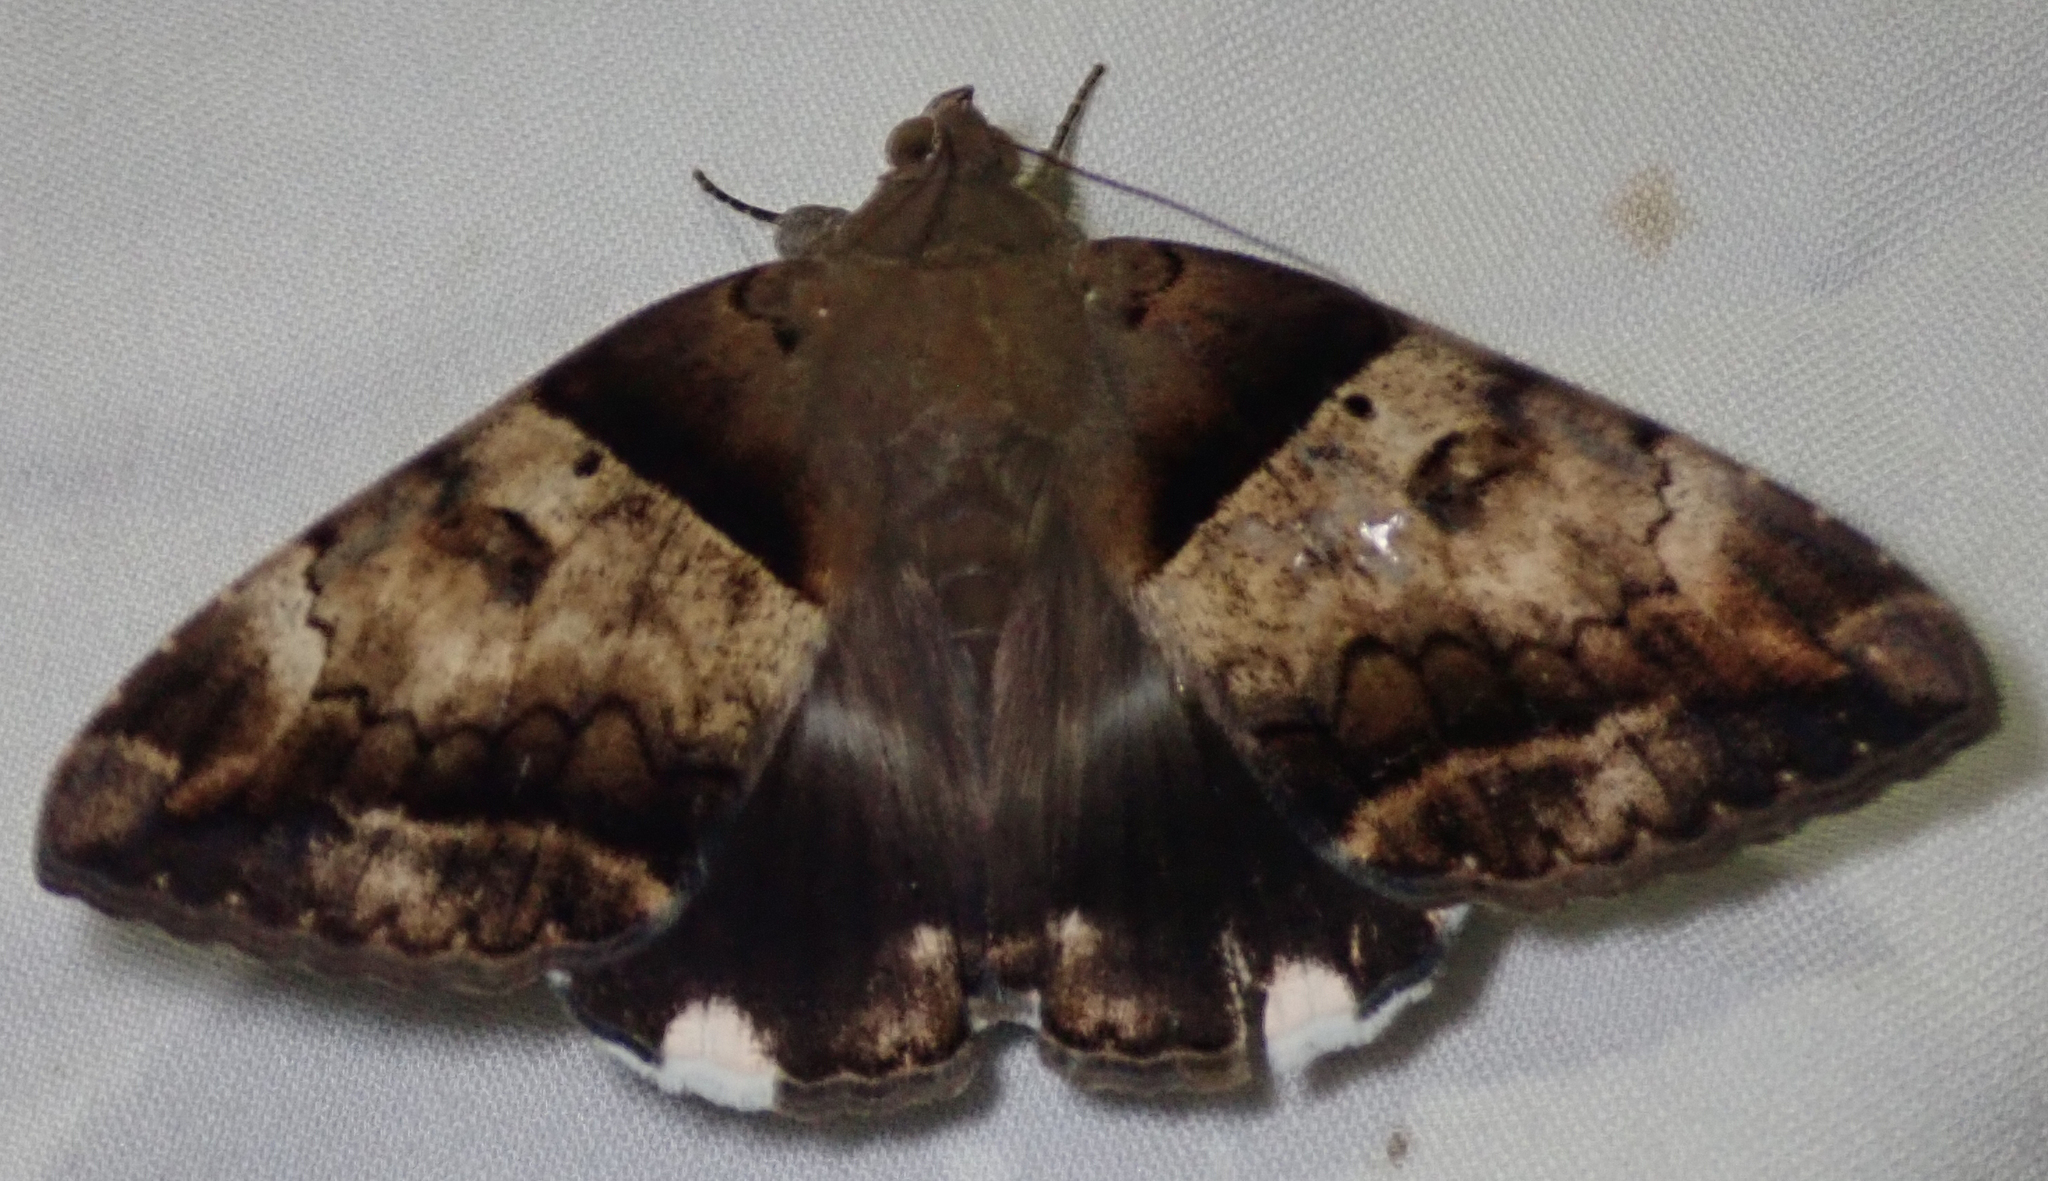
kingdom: Animalia
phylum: Arthropoda
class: Insecta
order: Lepidoptera
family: Erebidae
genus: Achaea
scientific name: Achaea lienardi
